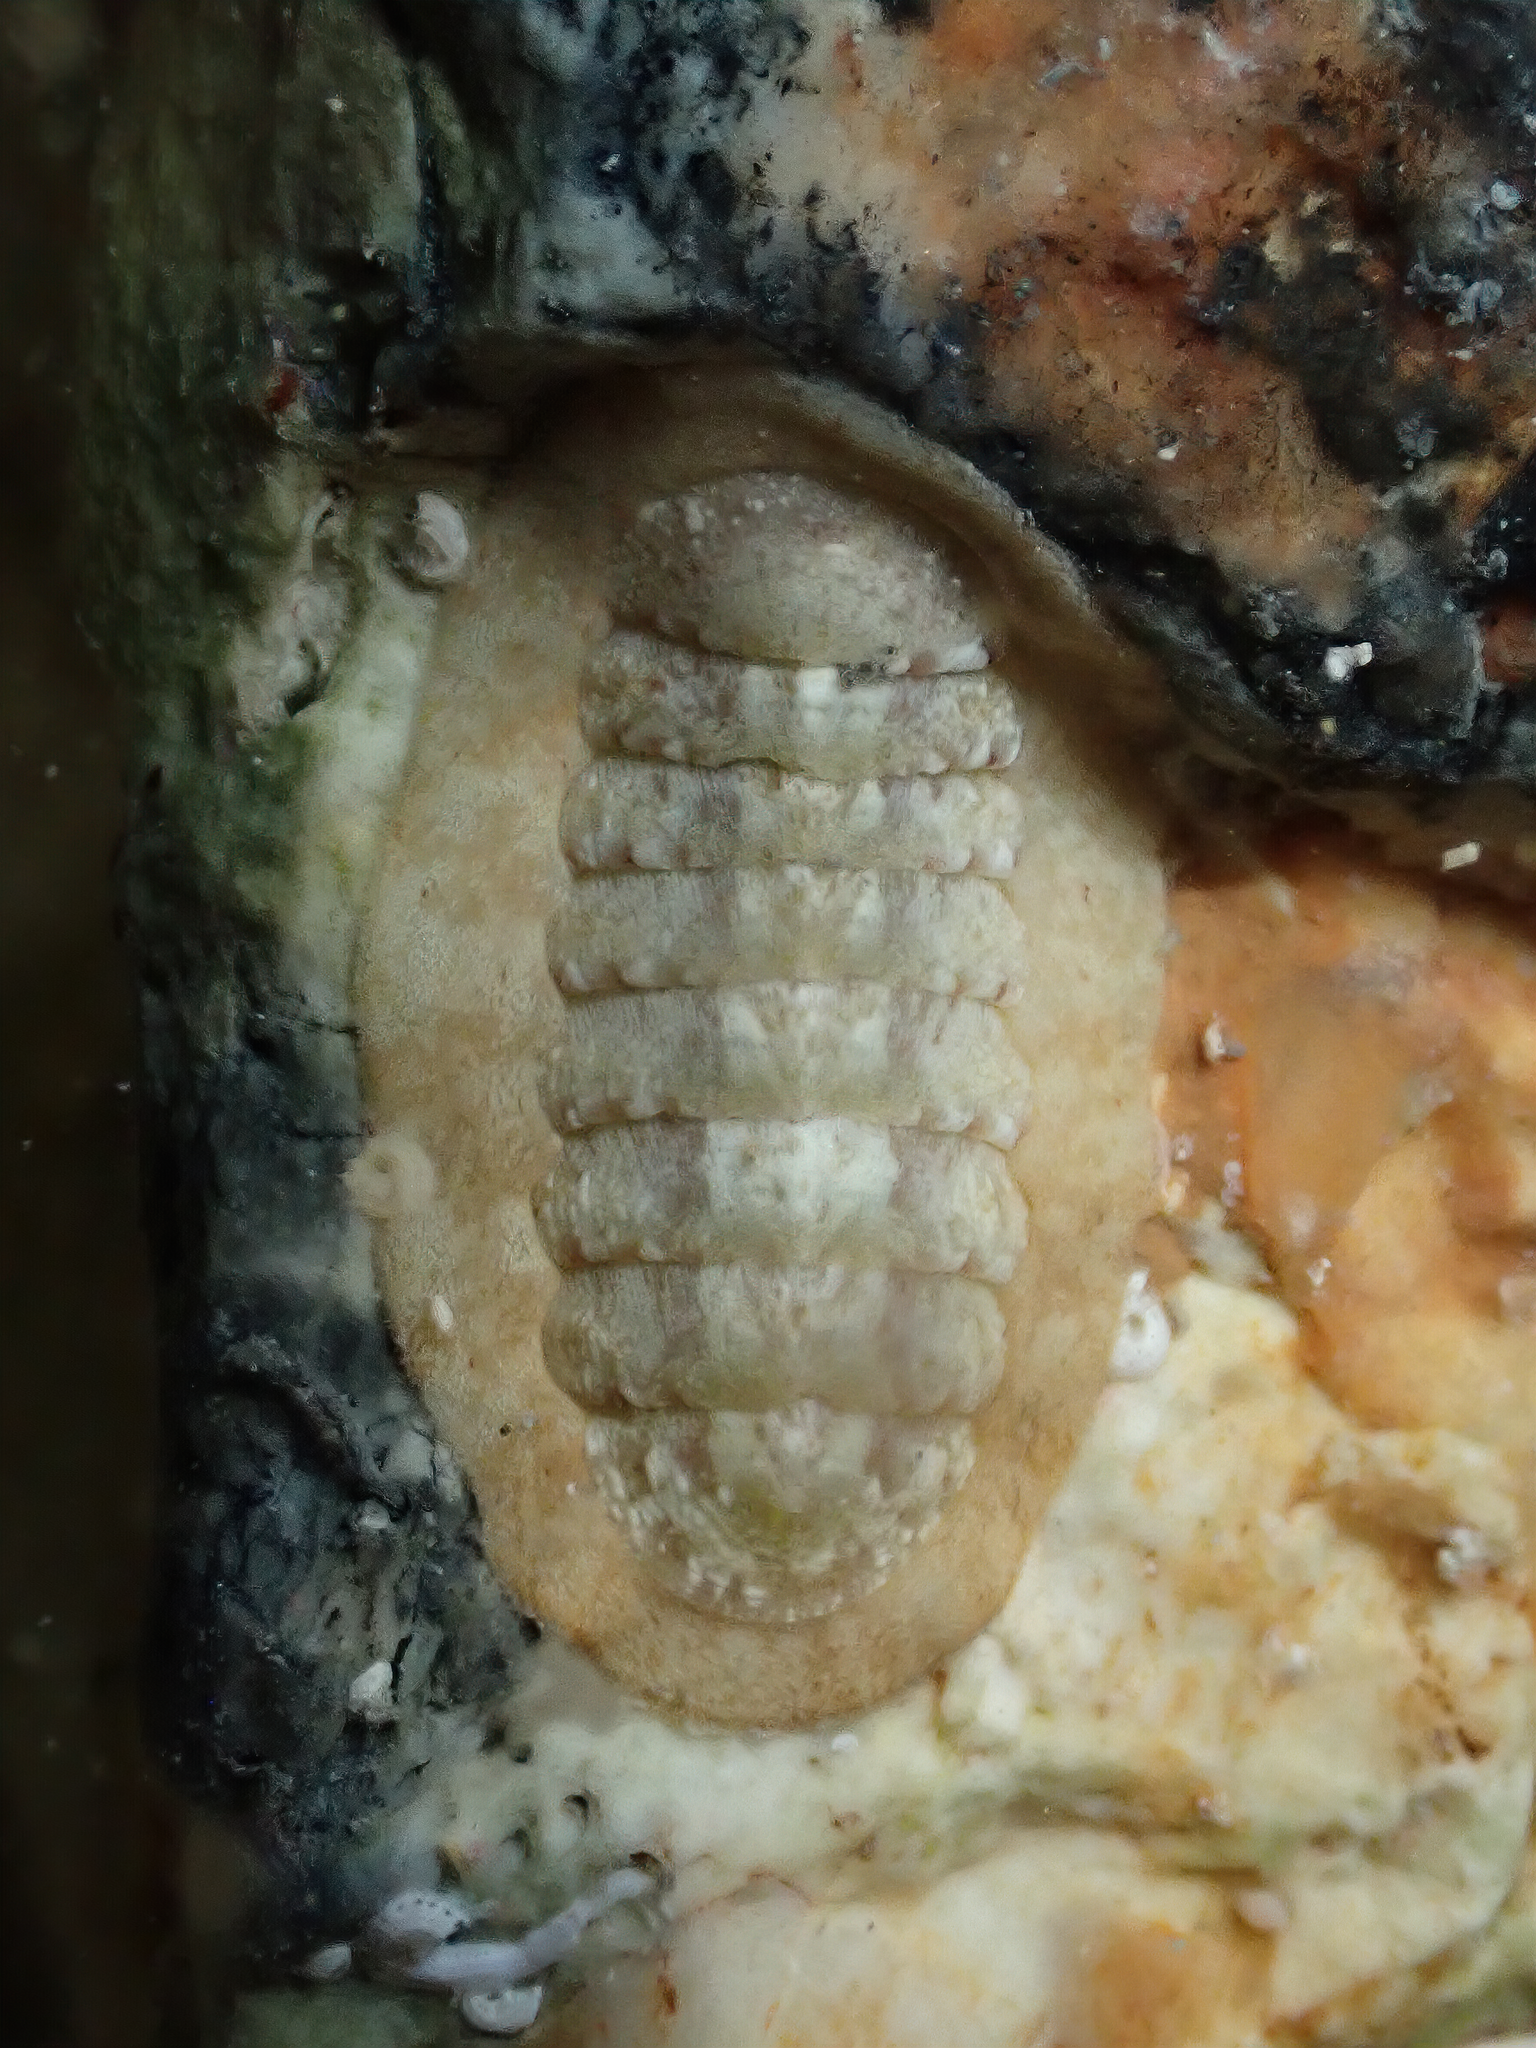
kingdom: Animalia
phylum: Mollusca
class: Polyplacophora
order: Chitonida
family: Ischnochitonidae
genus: Ischnochiton
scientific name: Ischnochiton rissoi
